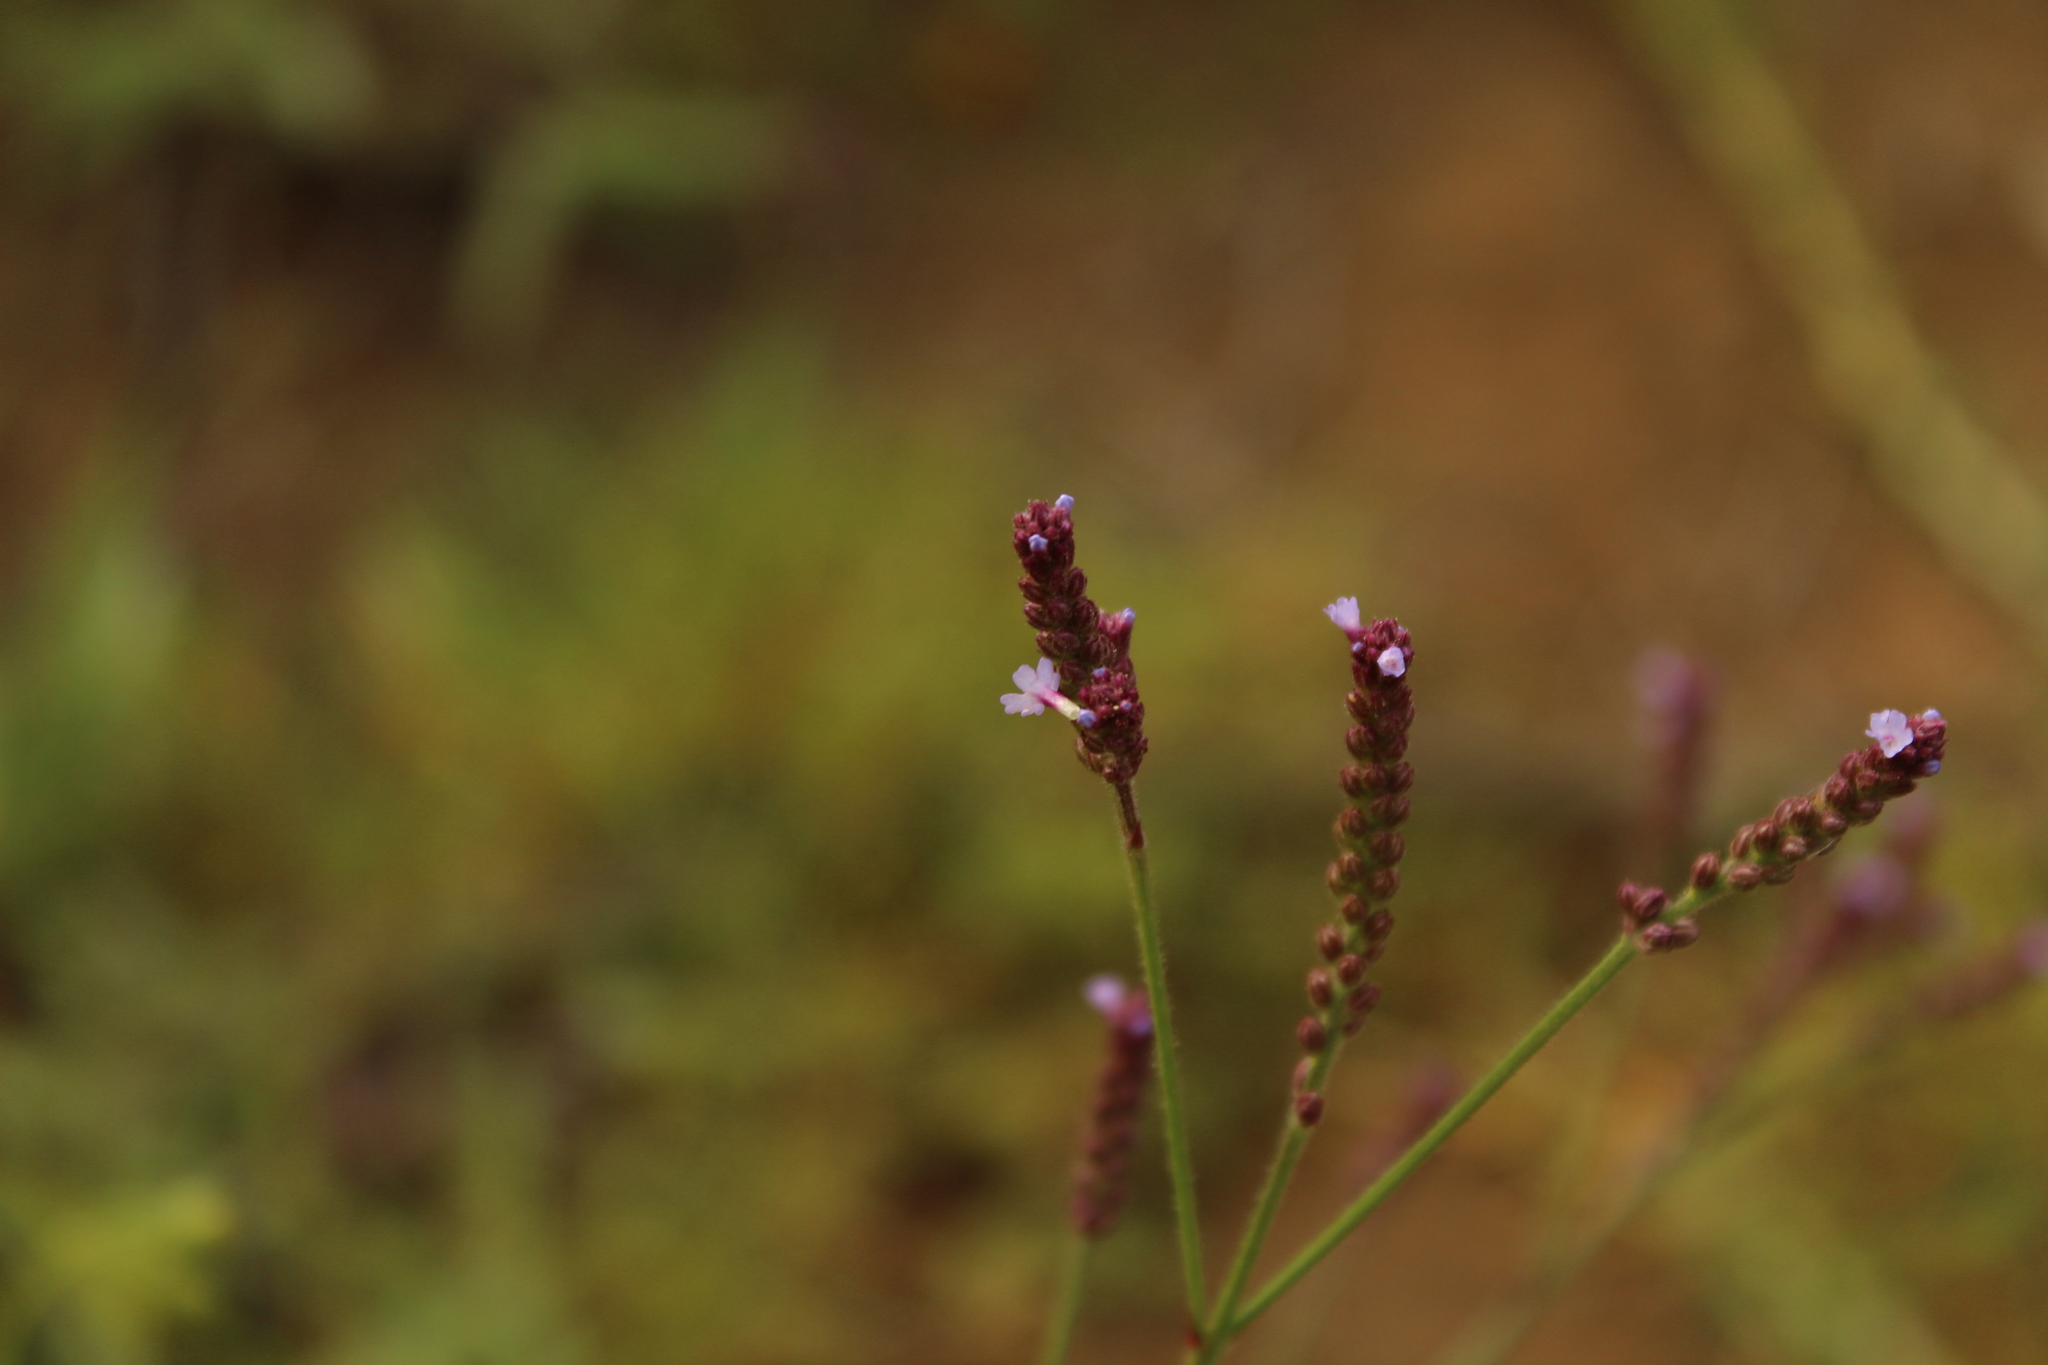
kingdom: Plantae
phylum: Tracheophyta
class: Magnoliopsida
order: Lamiales
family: Verbenaceae
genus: Verbena
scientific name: Verbena litoralis
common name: Seashore vervain
